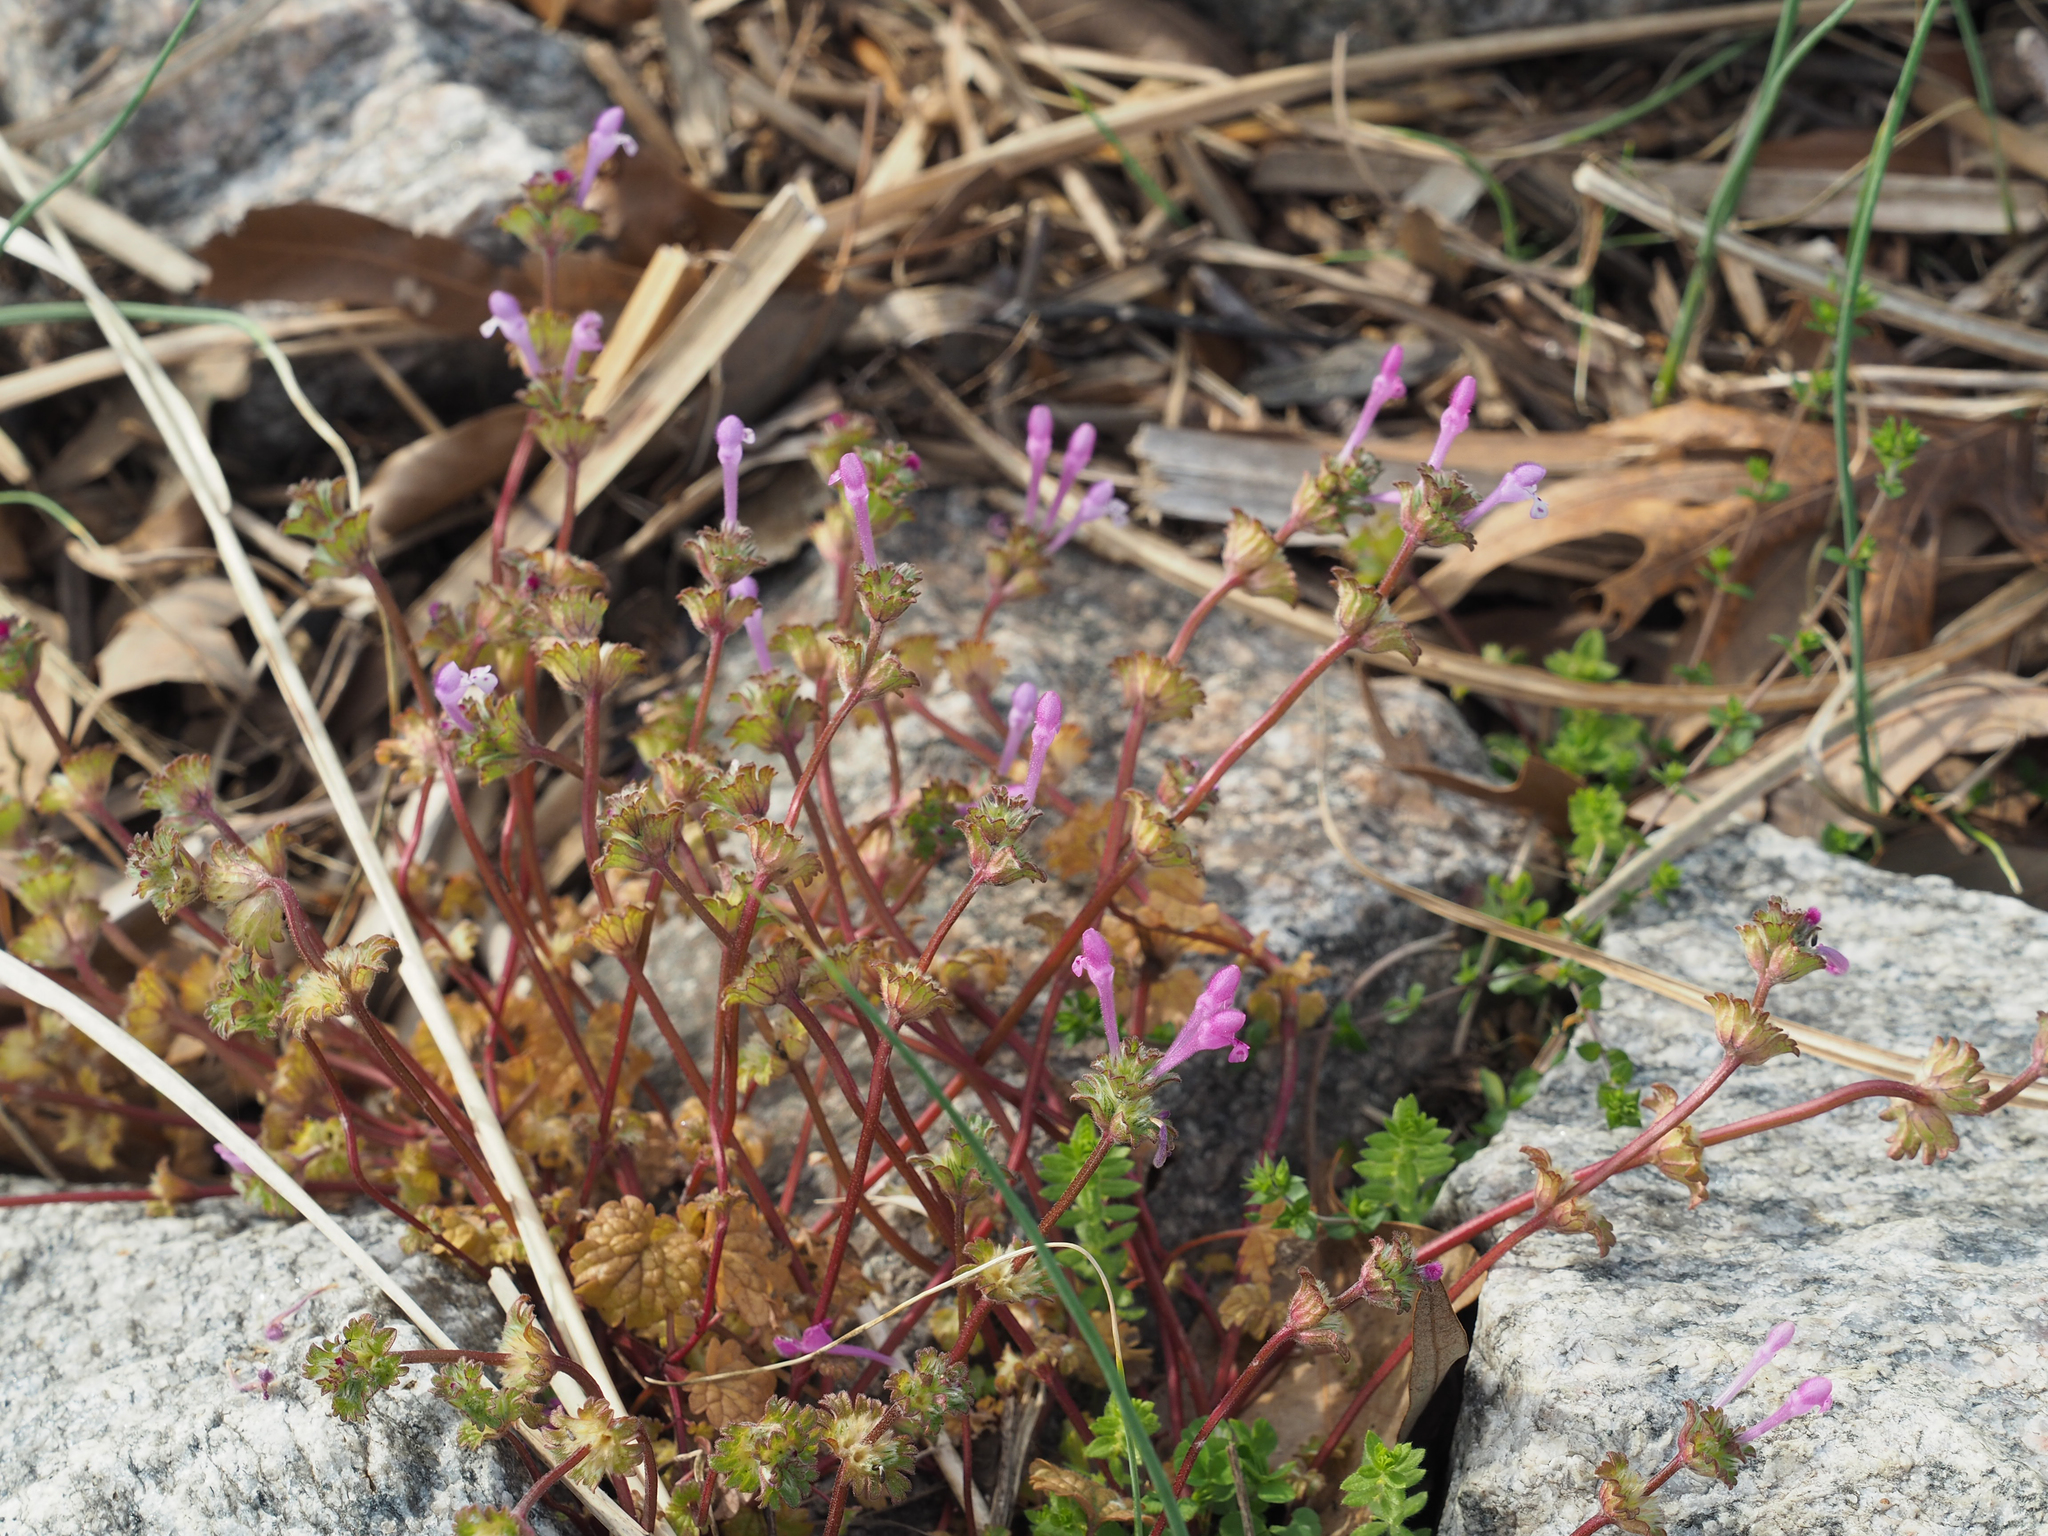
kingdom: Plantae
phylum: Tracheophyta
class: Magnoliopsida
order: Lamiales
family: Lamiaceae
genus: Lamium
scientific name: Lamium amplexicaule
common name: Henbit dead-nettle
